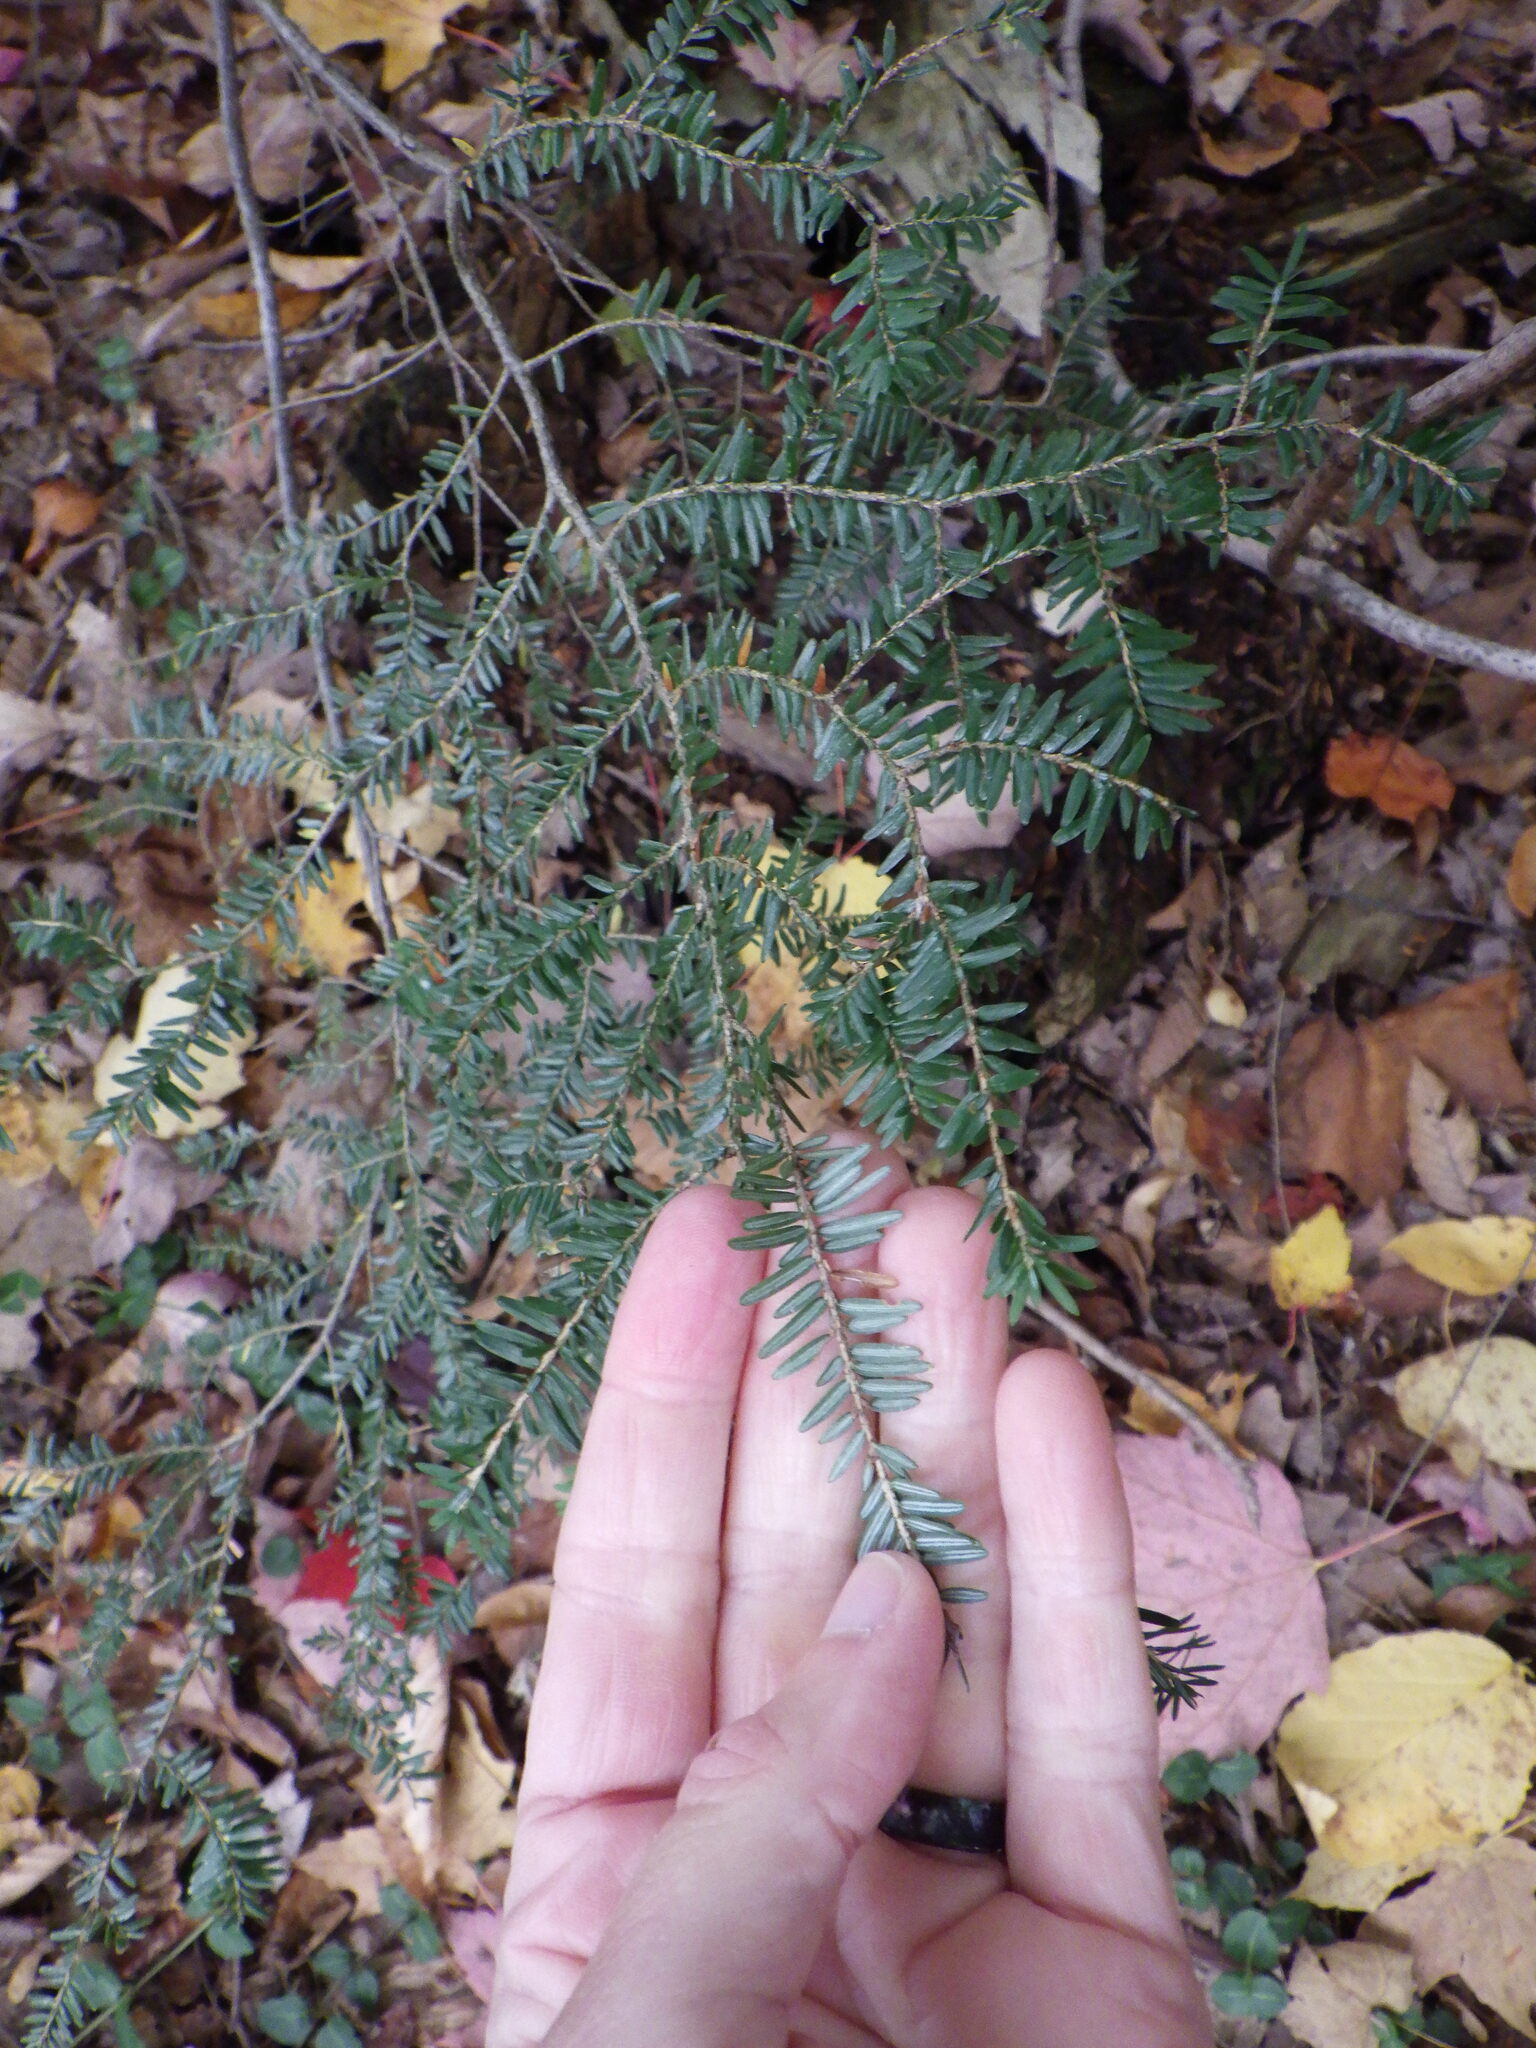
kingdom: Plantae
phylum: Tracheophyta
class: Pinopsida
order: Pinales
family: Pinaceae
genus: Tsuga
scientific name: Tsuga canadensis
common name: Eastern hemlock
